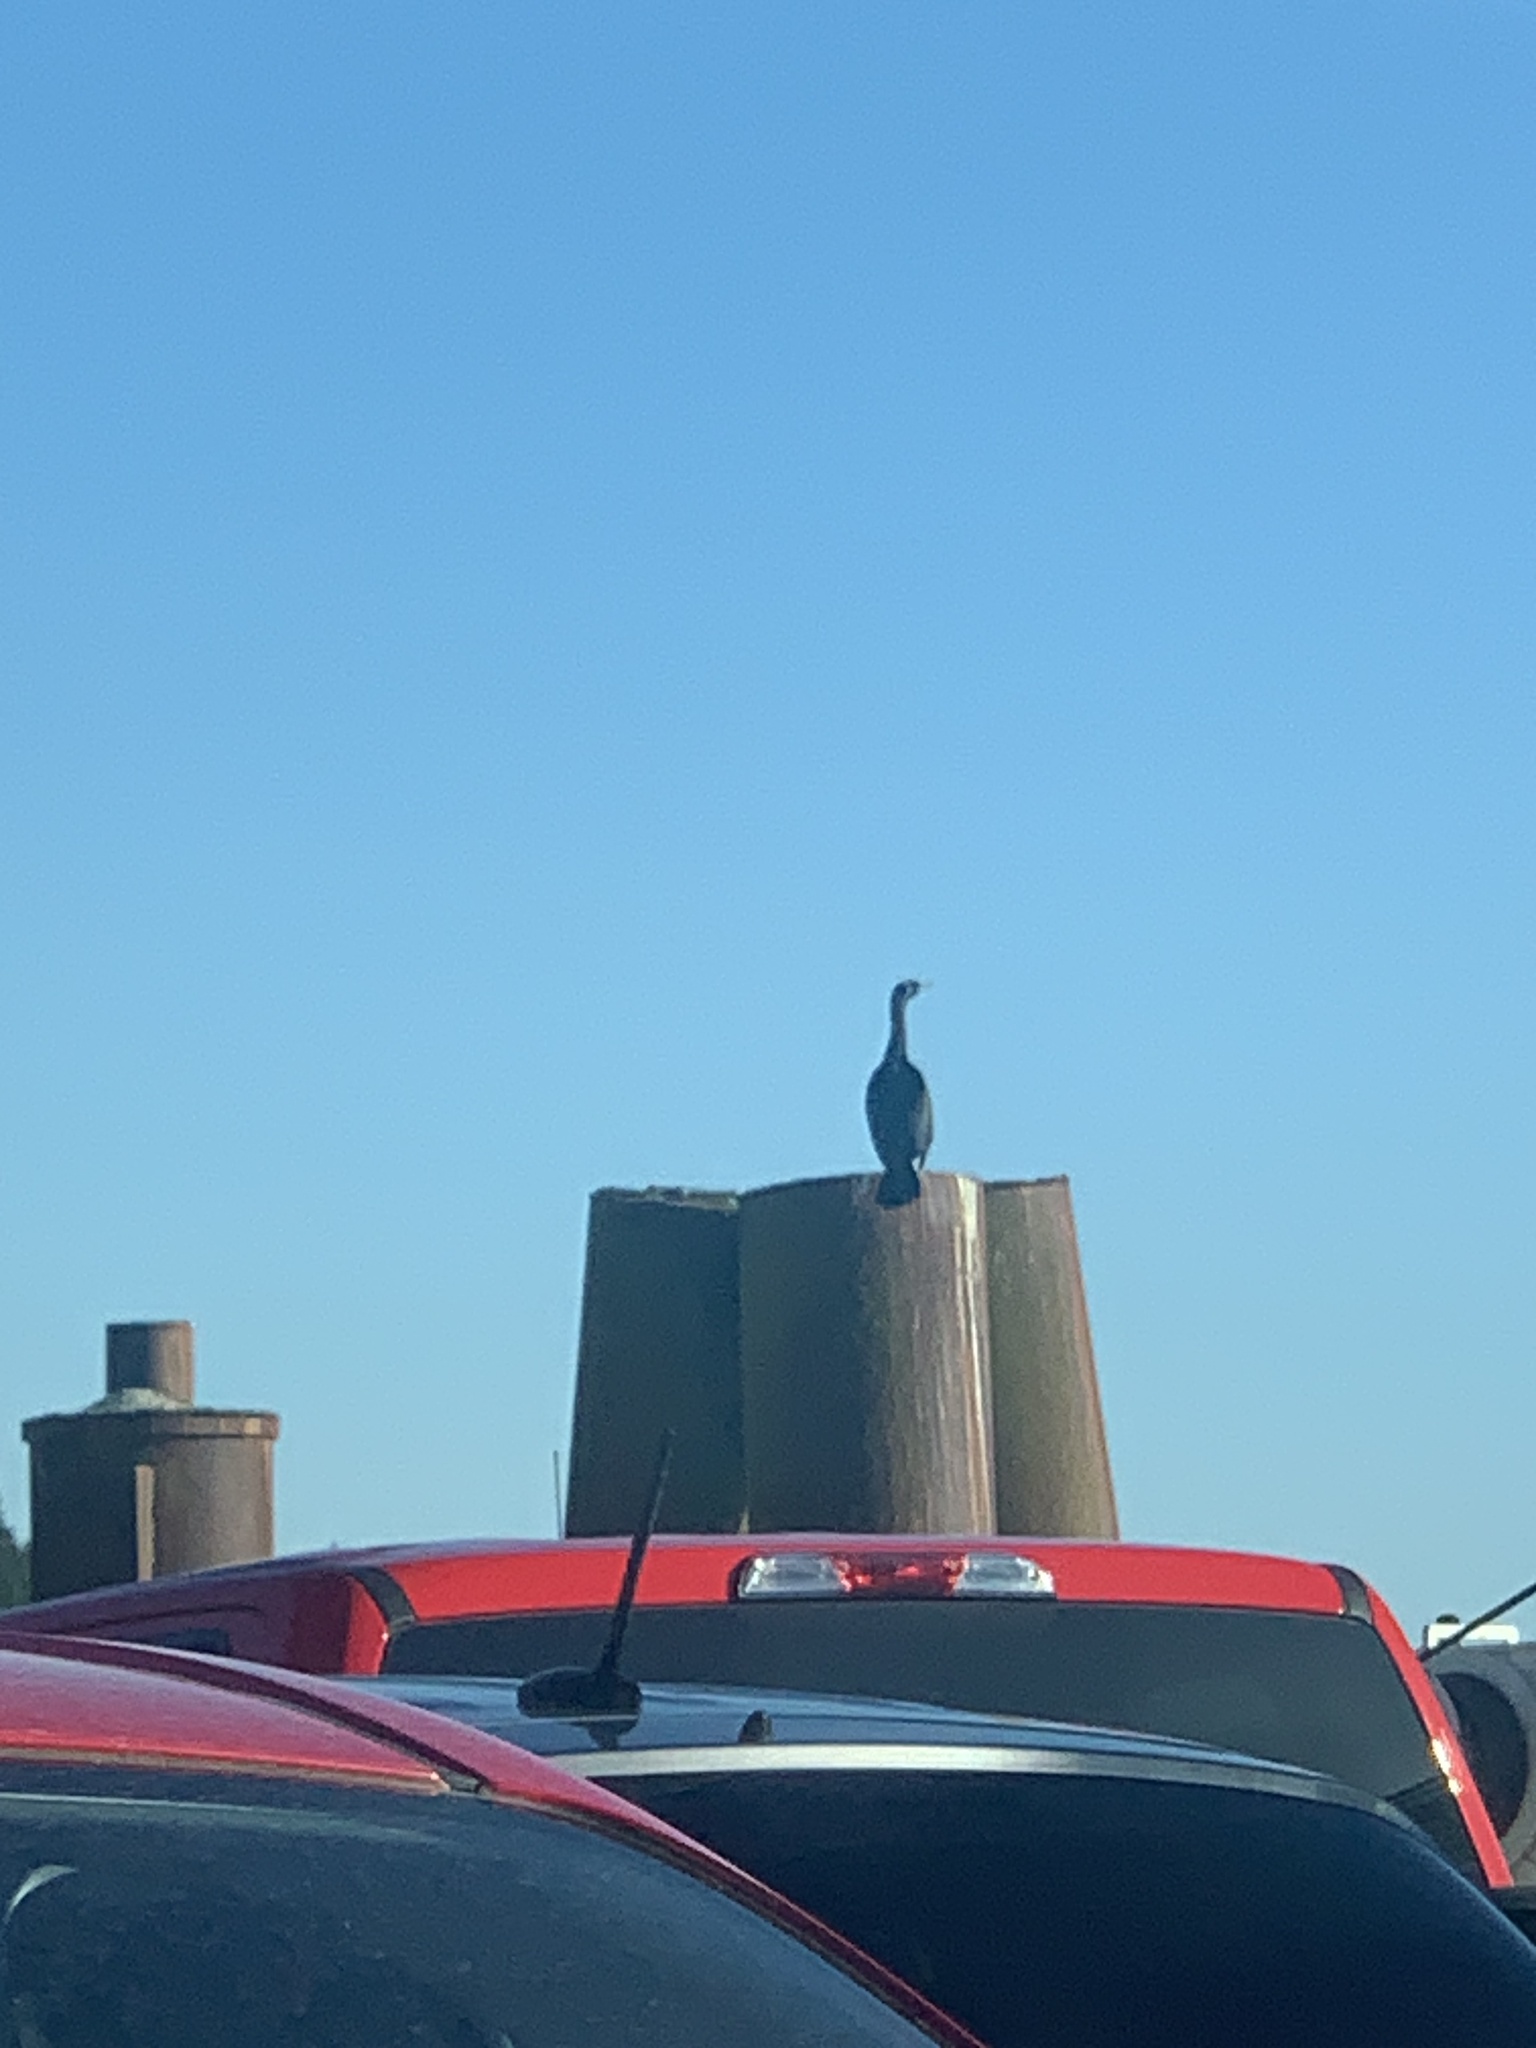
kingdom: Animalia
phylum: Chordata
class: Aves
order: Suliformes
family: Phalacrocoracidae
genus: Phalacrocorax
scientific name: Phalacrocorax pelagicus
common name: Pelagic cormorant
